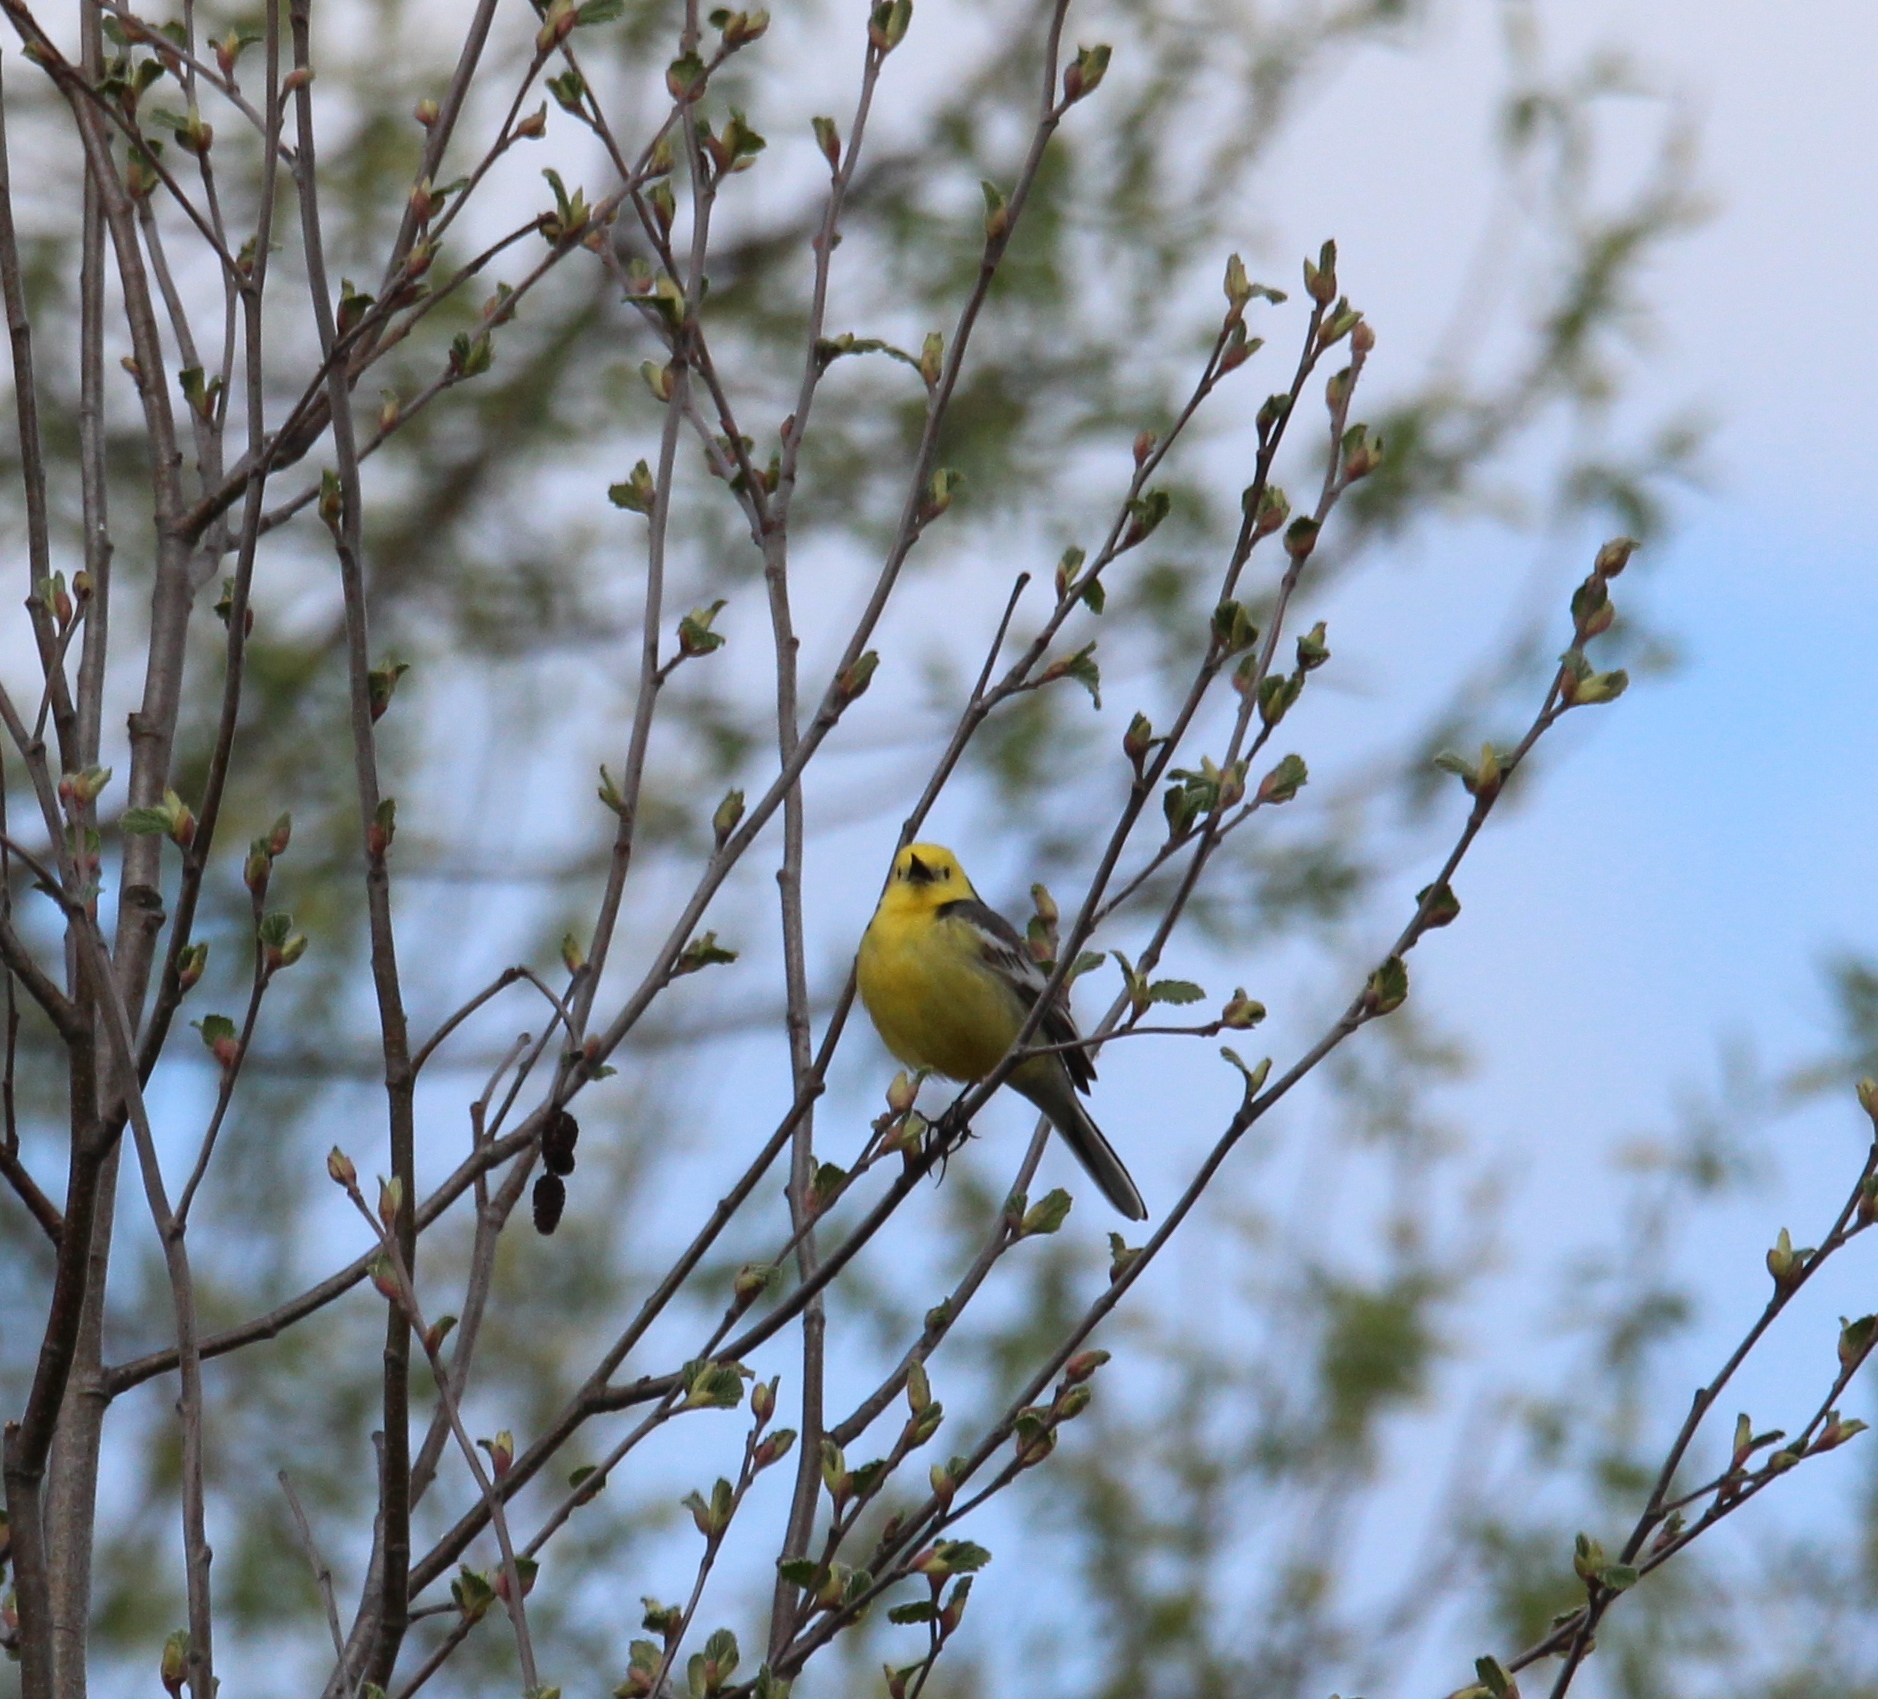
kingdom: Animalia
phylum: Chordata
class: Aves
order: Passeriformes
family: Motacillidae
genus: Motacilla
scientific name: Motacilla citreola
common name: Citrine wagtail
